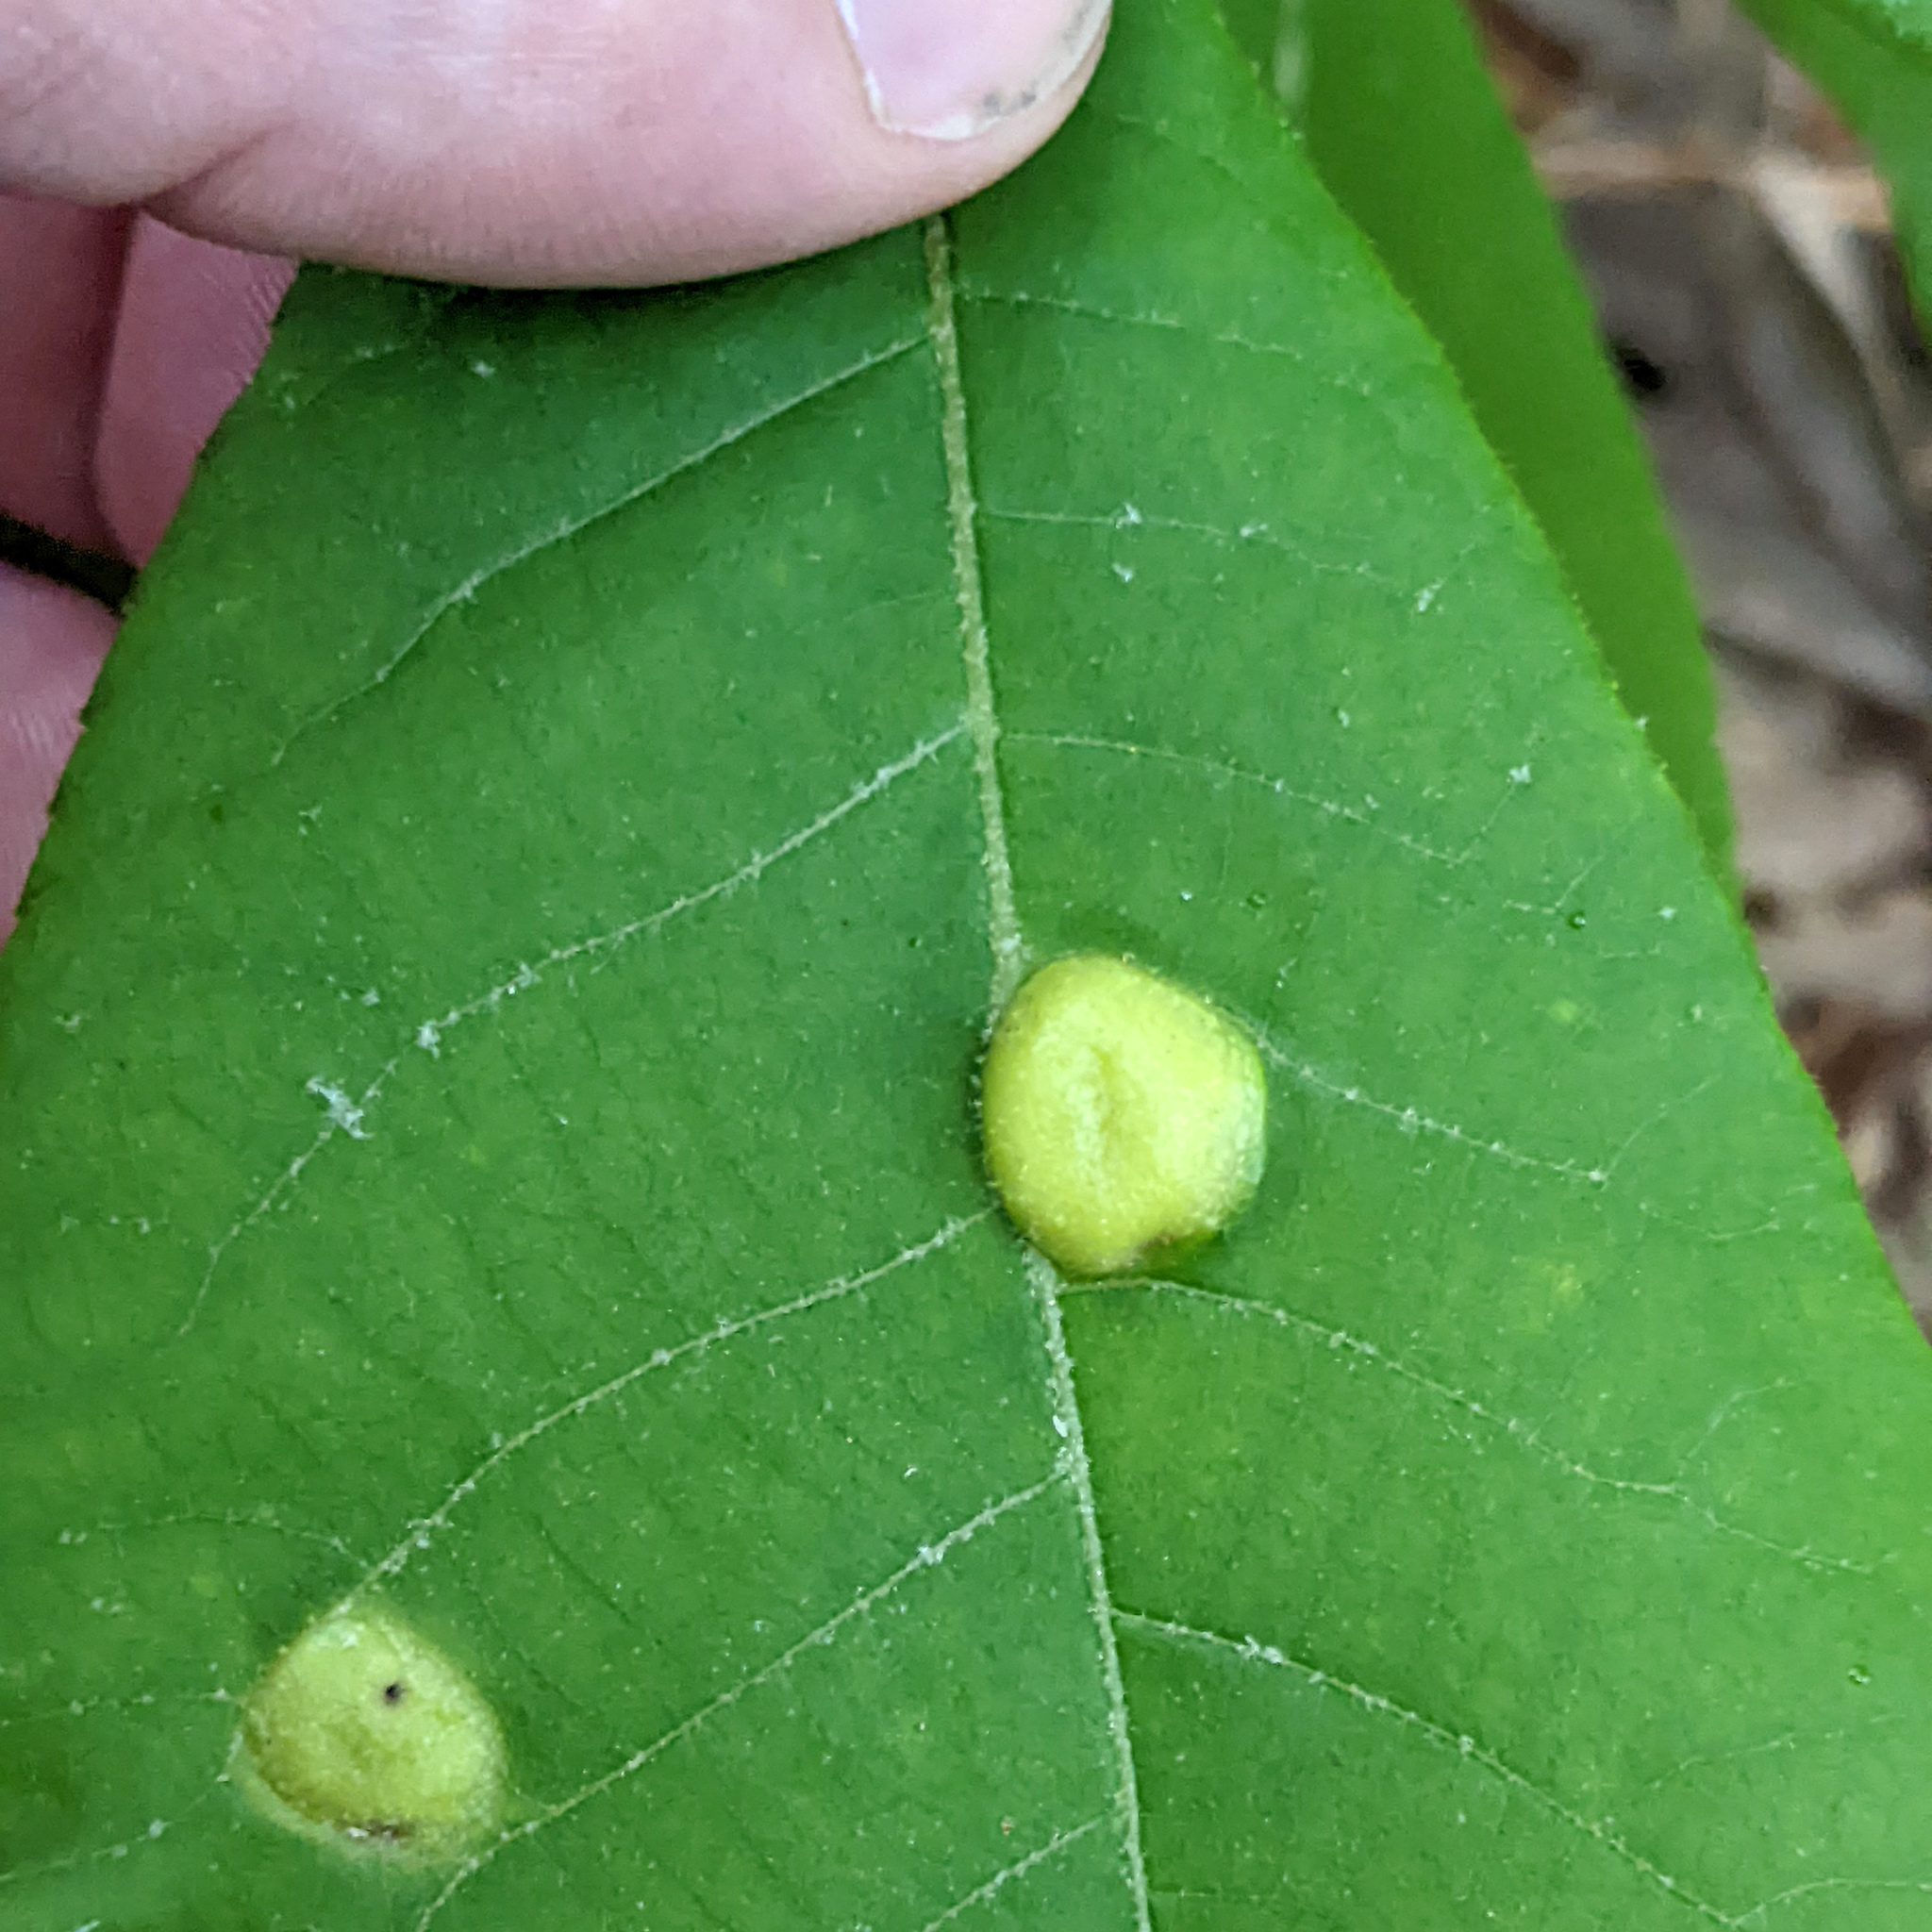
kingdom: Animalia
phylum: Arthropoda
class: Insecta
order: Hemiptera
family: Phylloxeridae
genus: Phylloxera
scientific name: Phylloxera caryae-scissa
